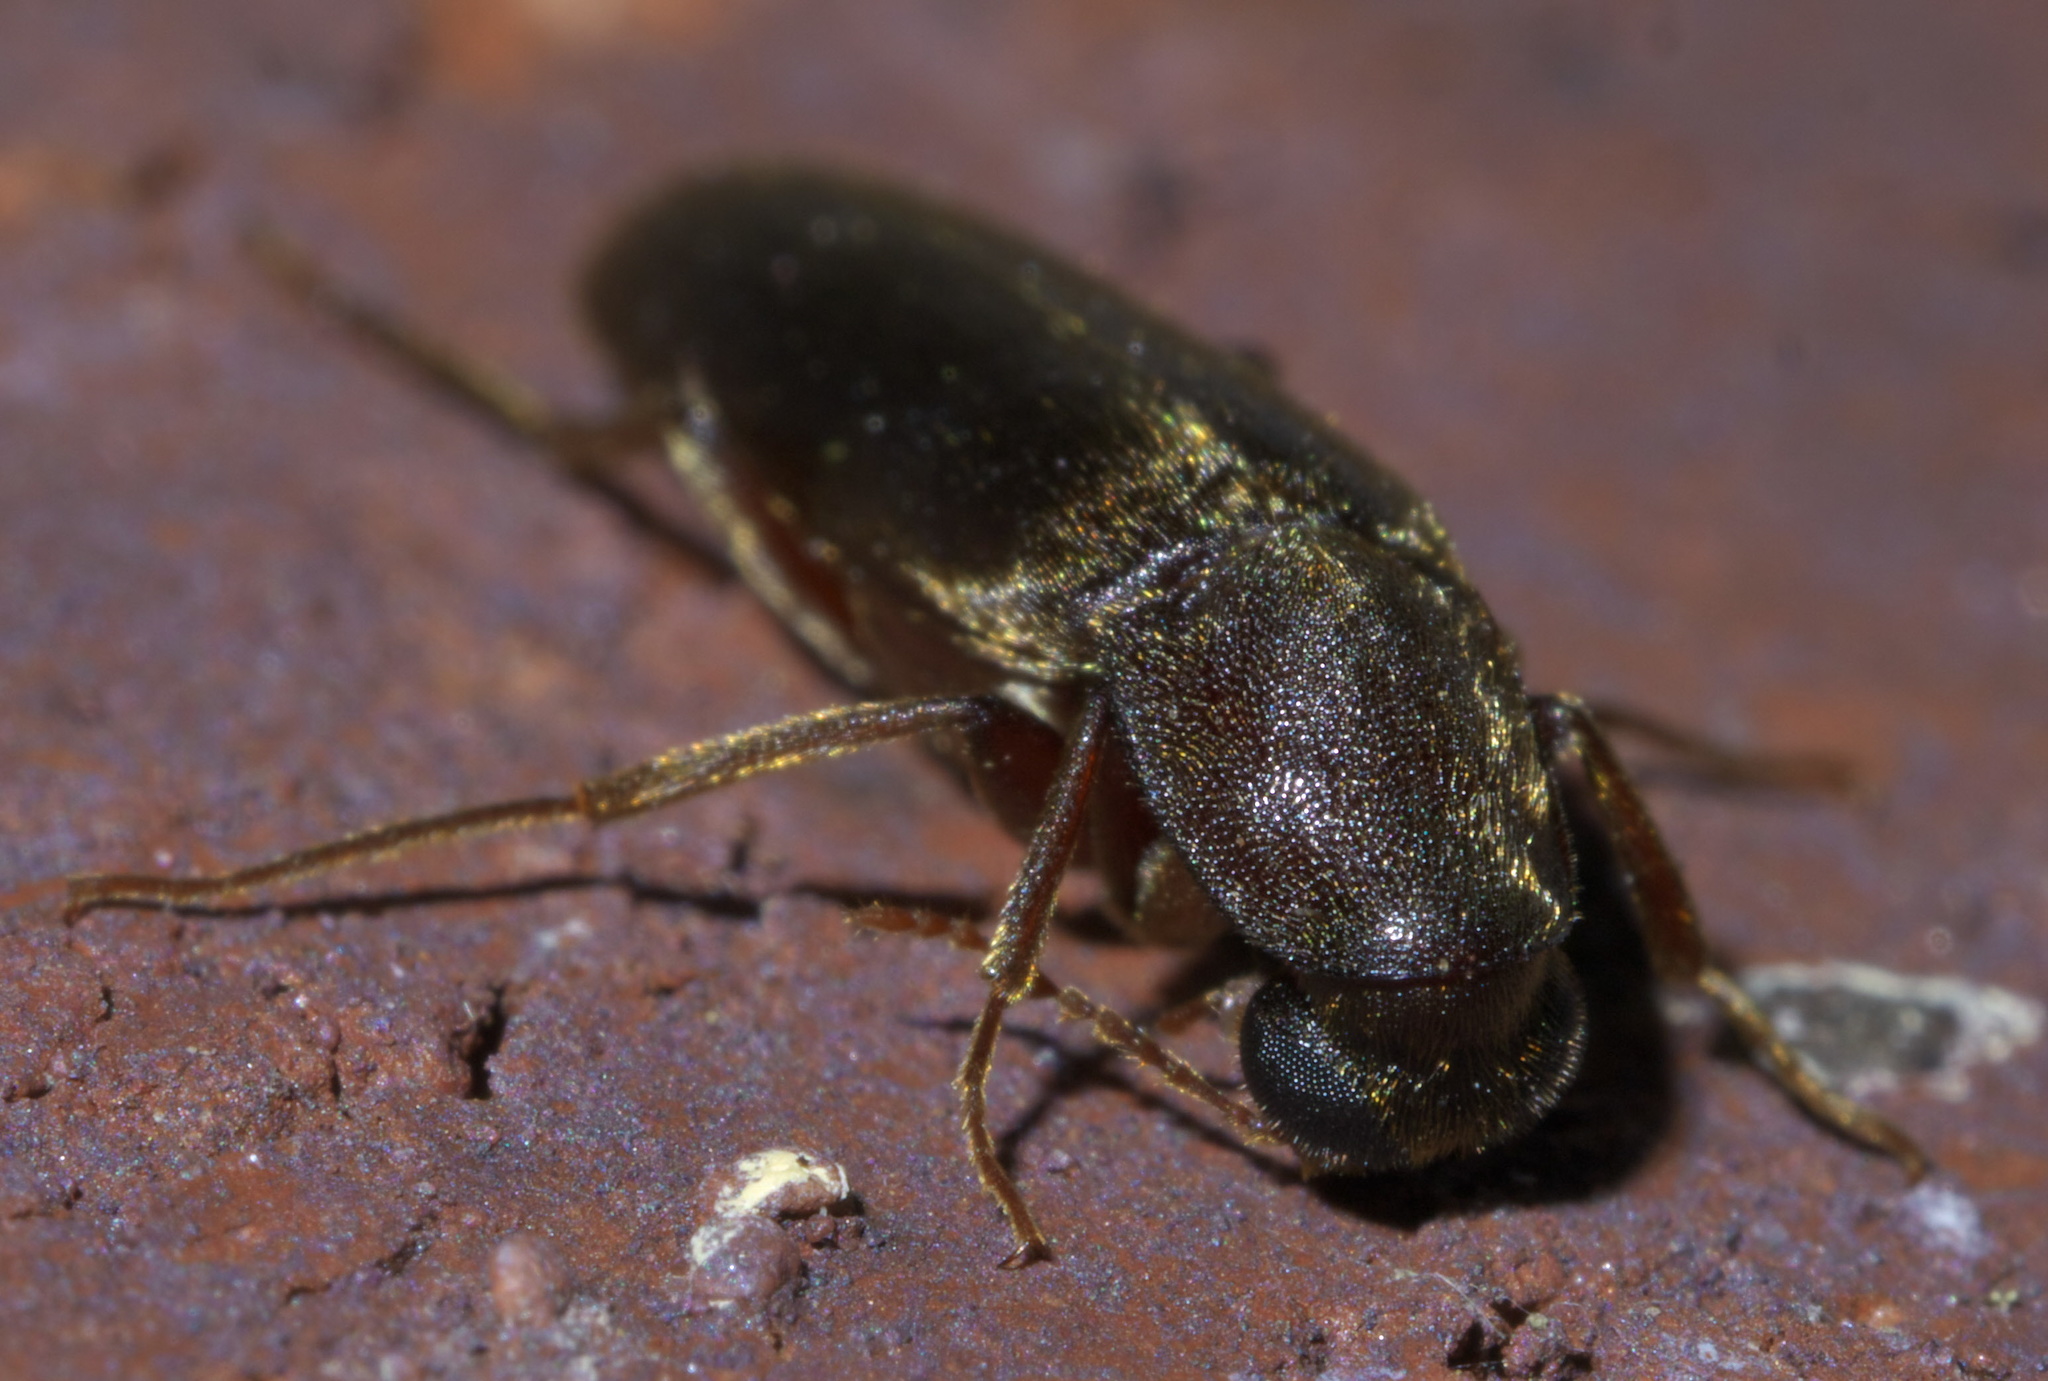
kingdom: Animalia
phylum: Arthropoda
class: Insecta
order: Coleoptera
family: Lymexylidae
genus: Melittomma
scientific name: Melittomma sericeum
